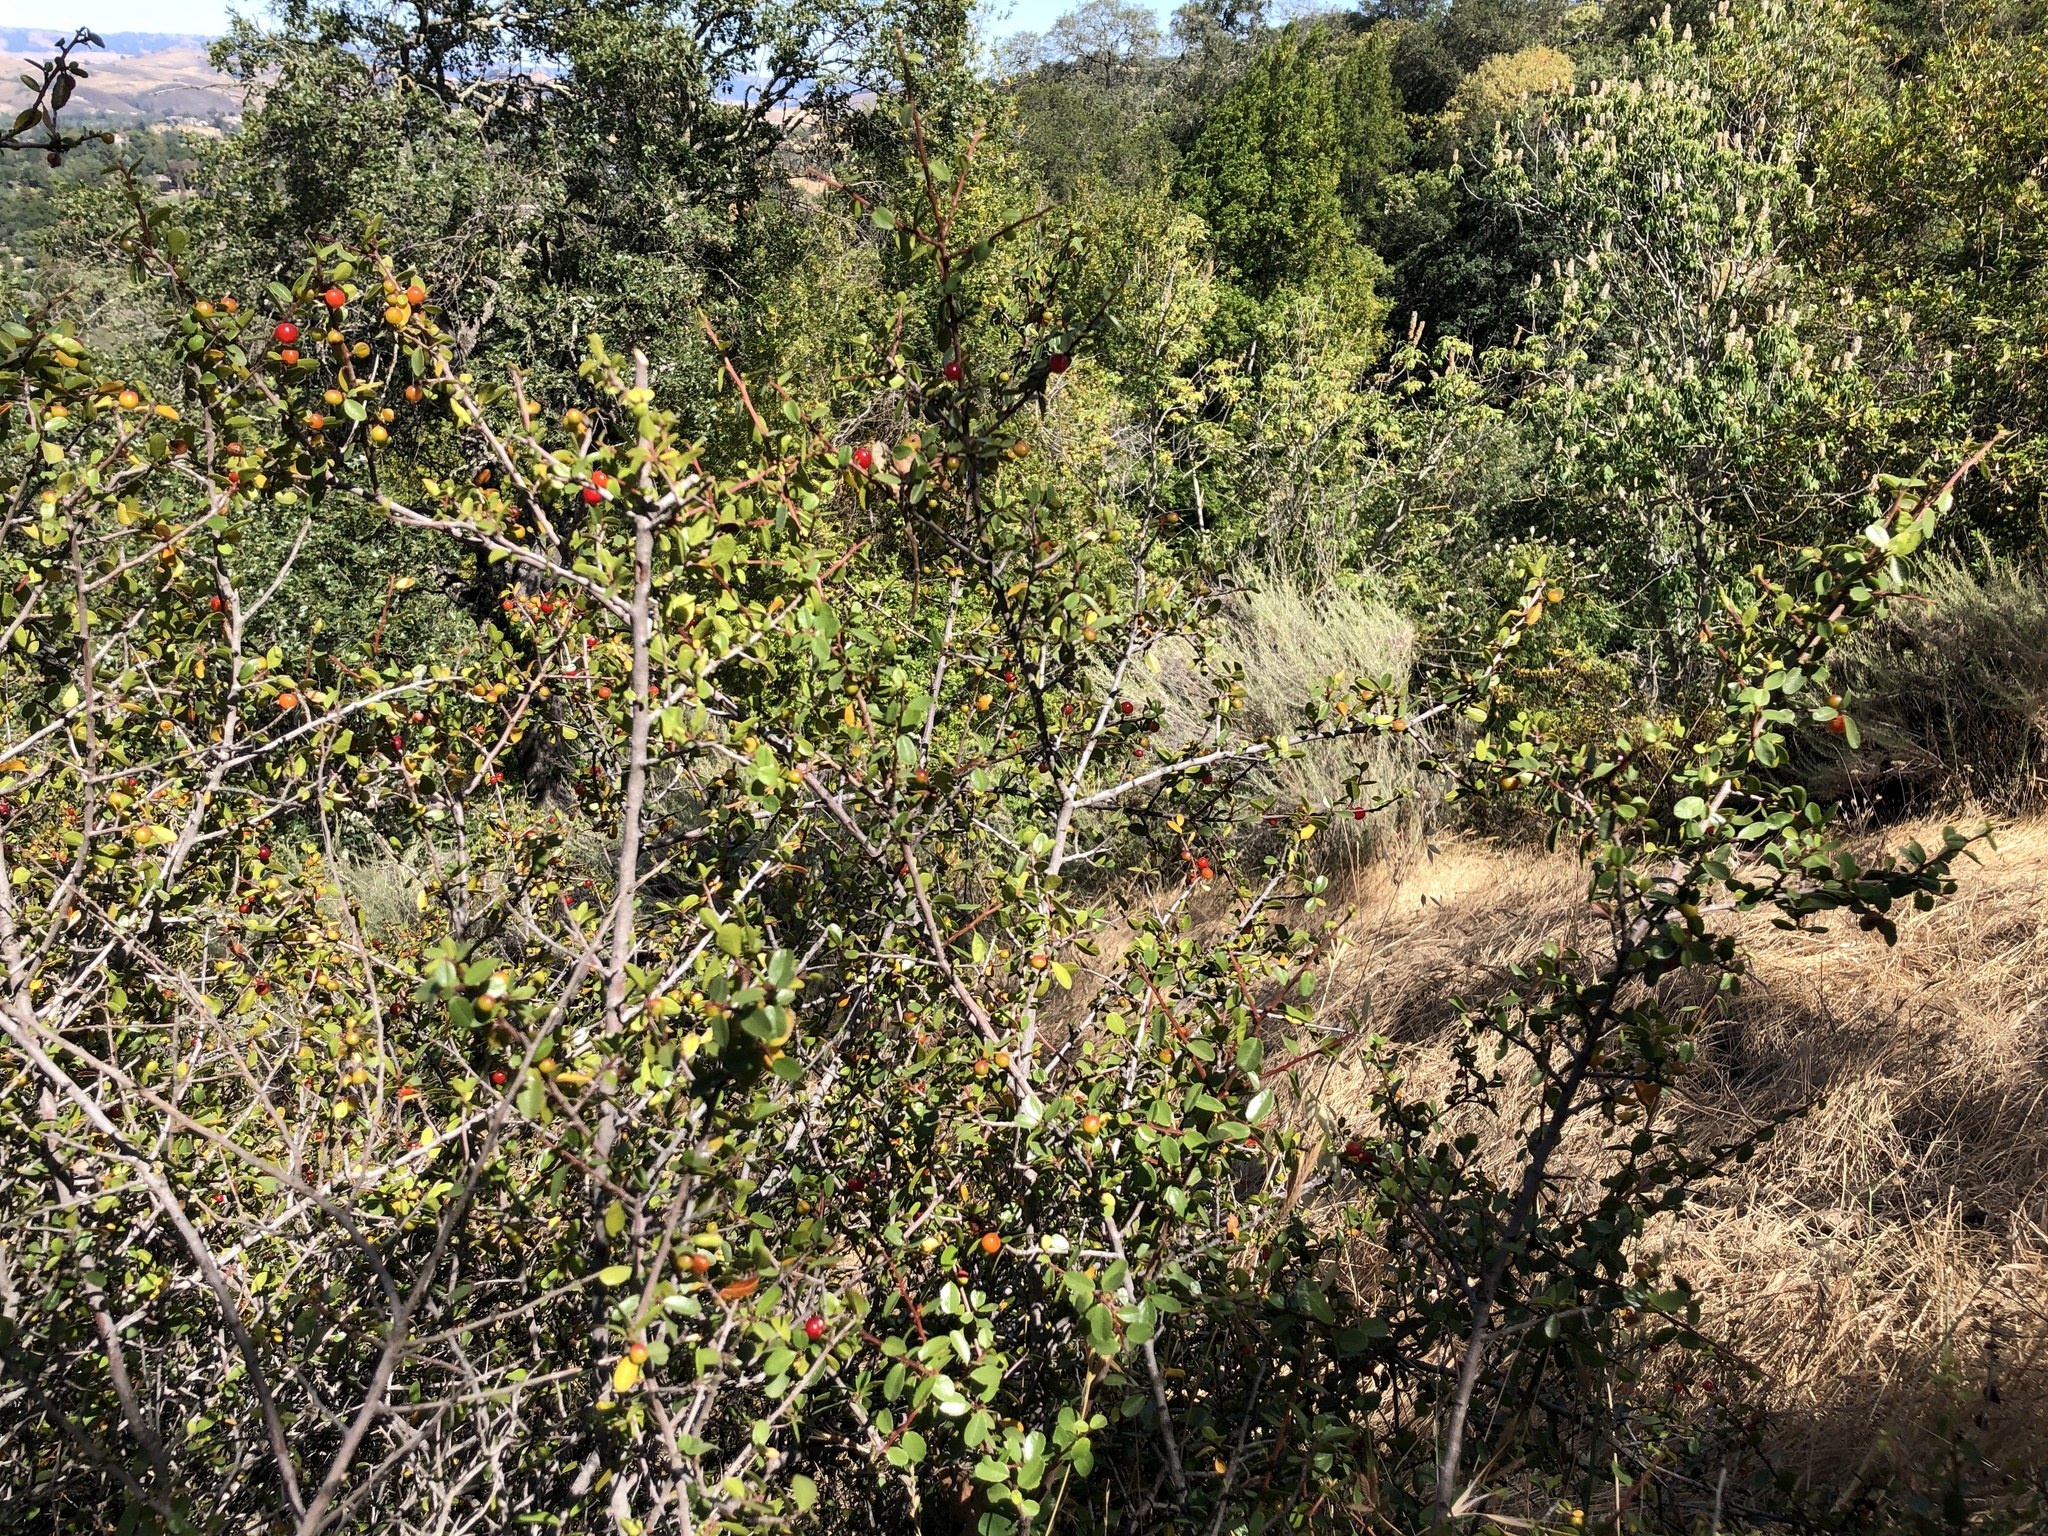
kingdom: Plantae
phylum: Tracheophyta
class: Magnoliopsida
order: Rosales
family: Rhamnaceae
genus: Endotropis
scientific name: Endotropis crocea
